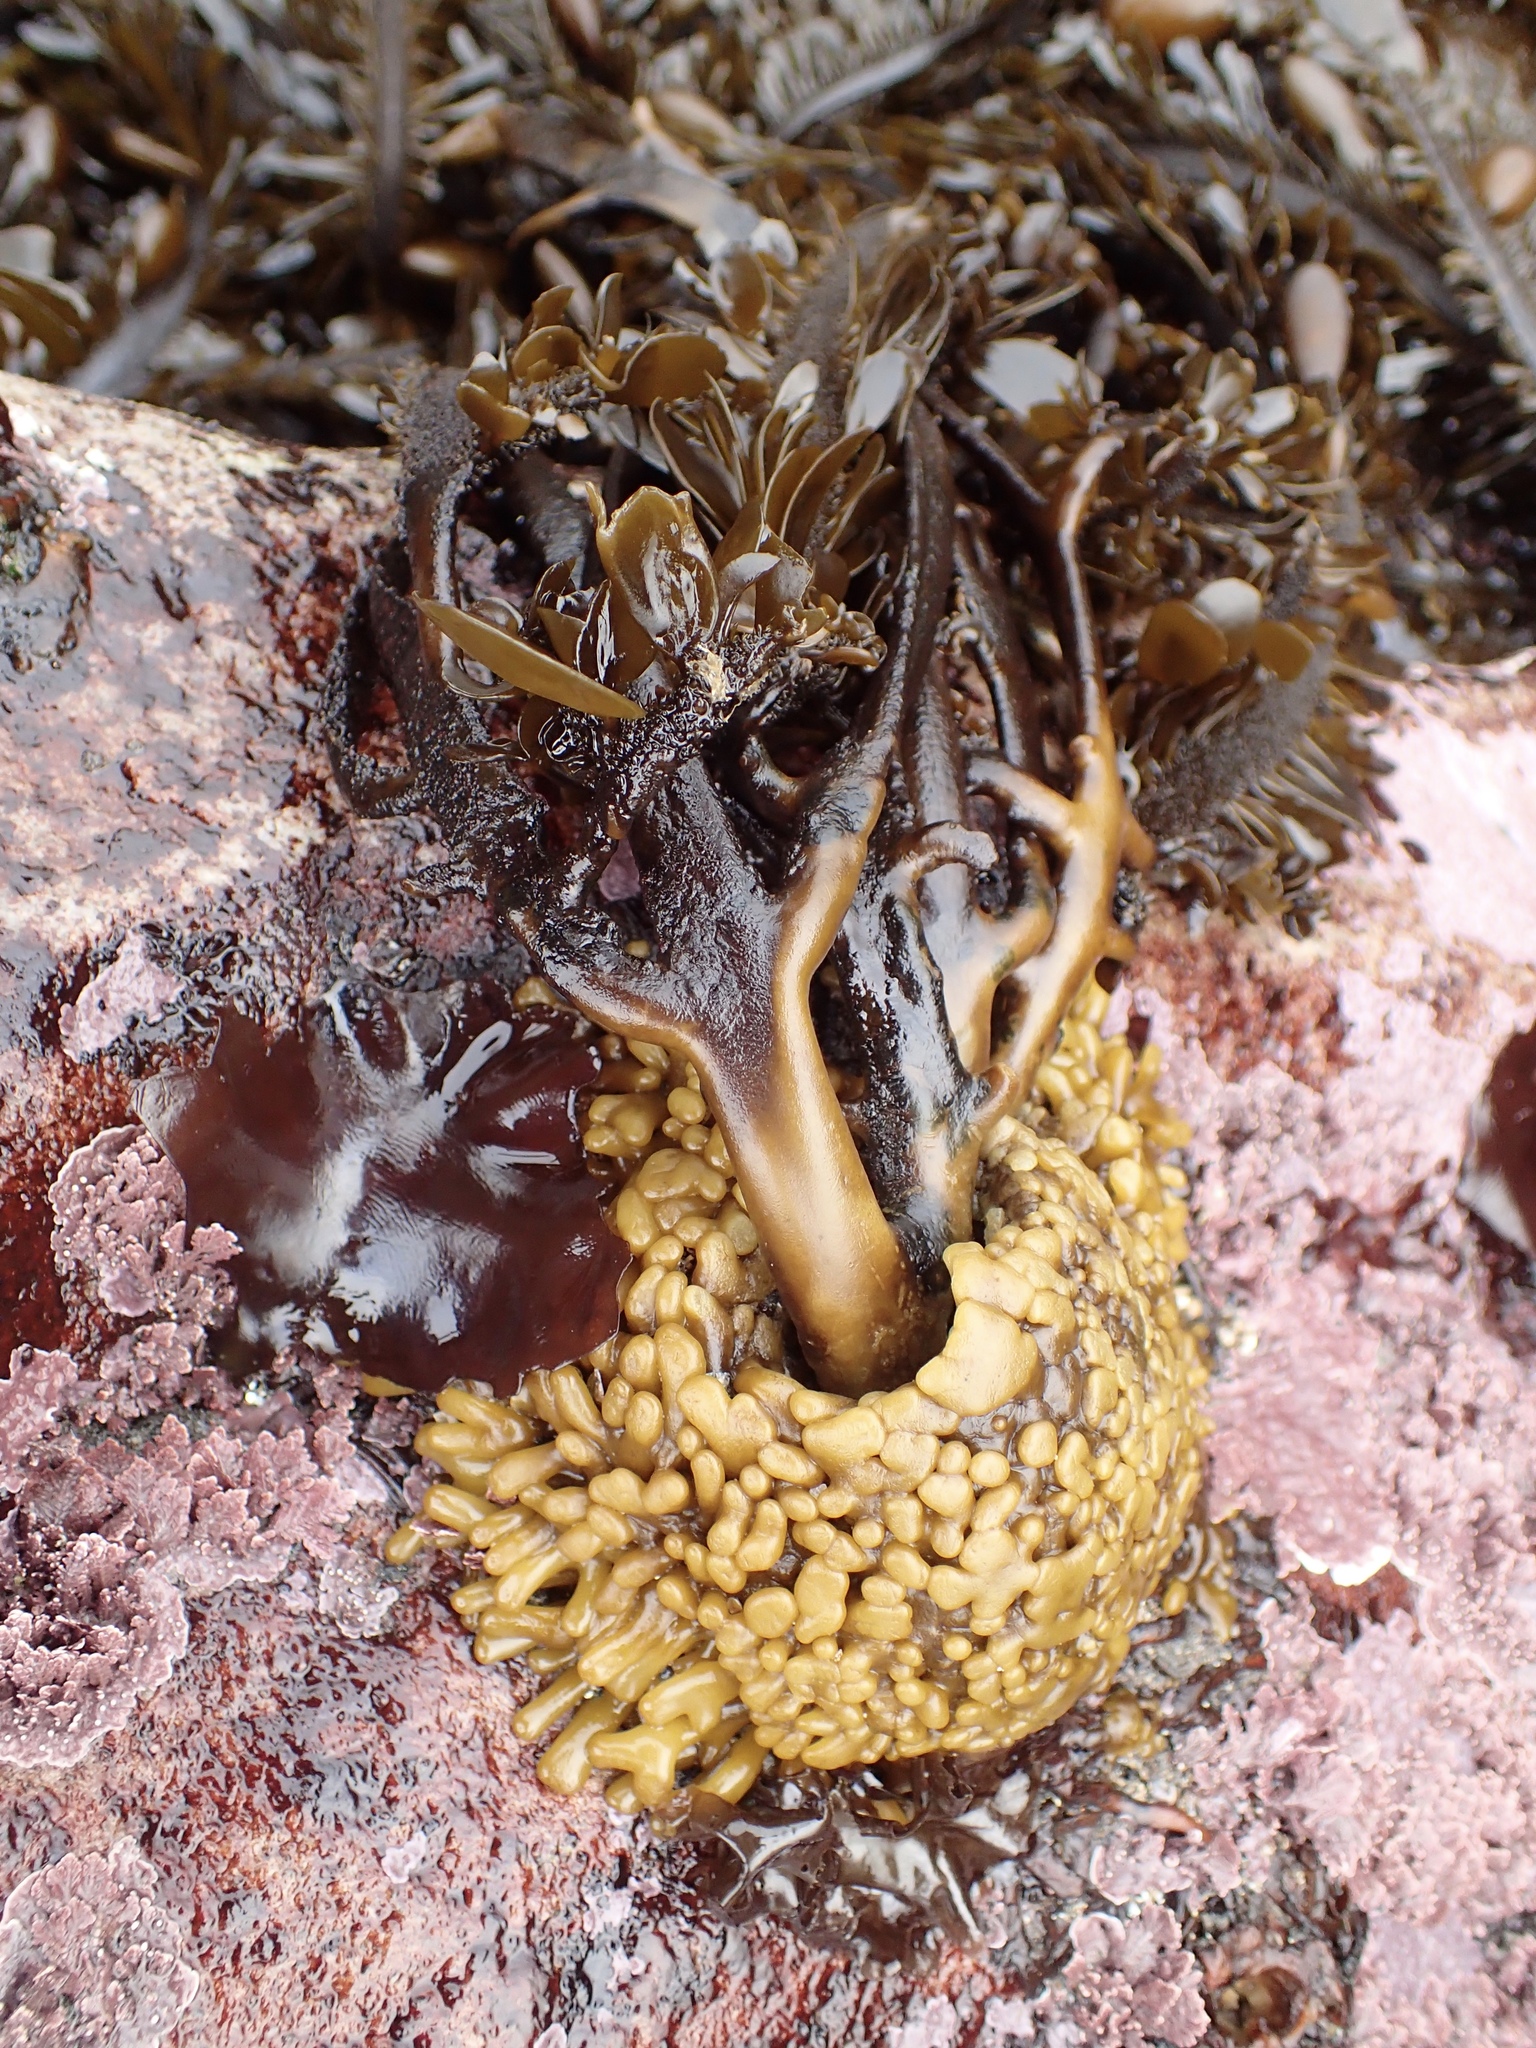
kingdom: Chromista
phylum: Ochrophyta
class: Phaeophyceae
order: Laminariales
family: Lessoniaceae
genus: Egregia
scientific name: Egregia menziesii
